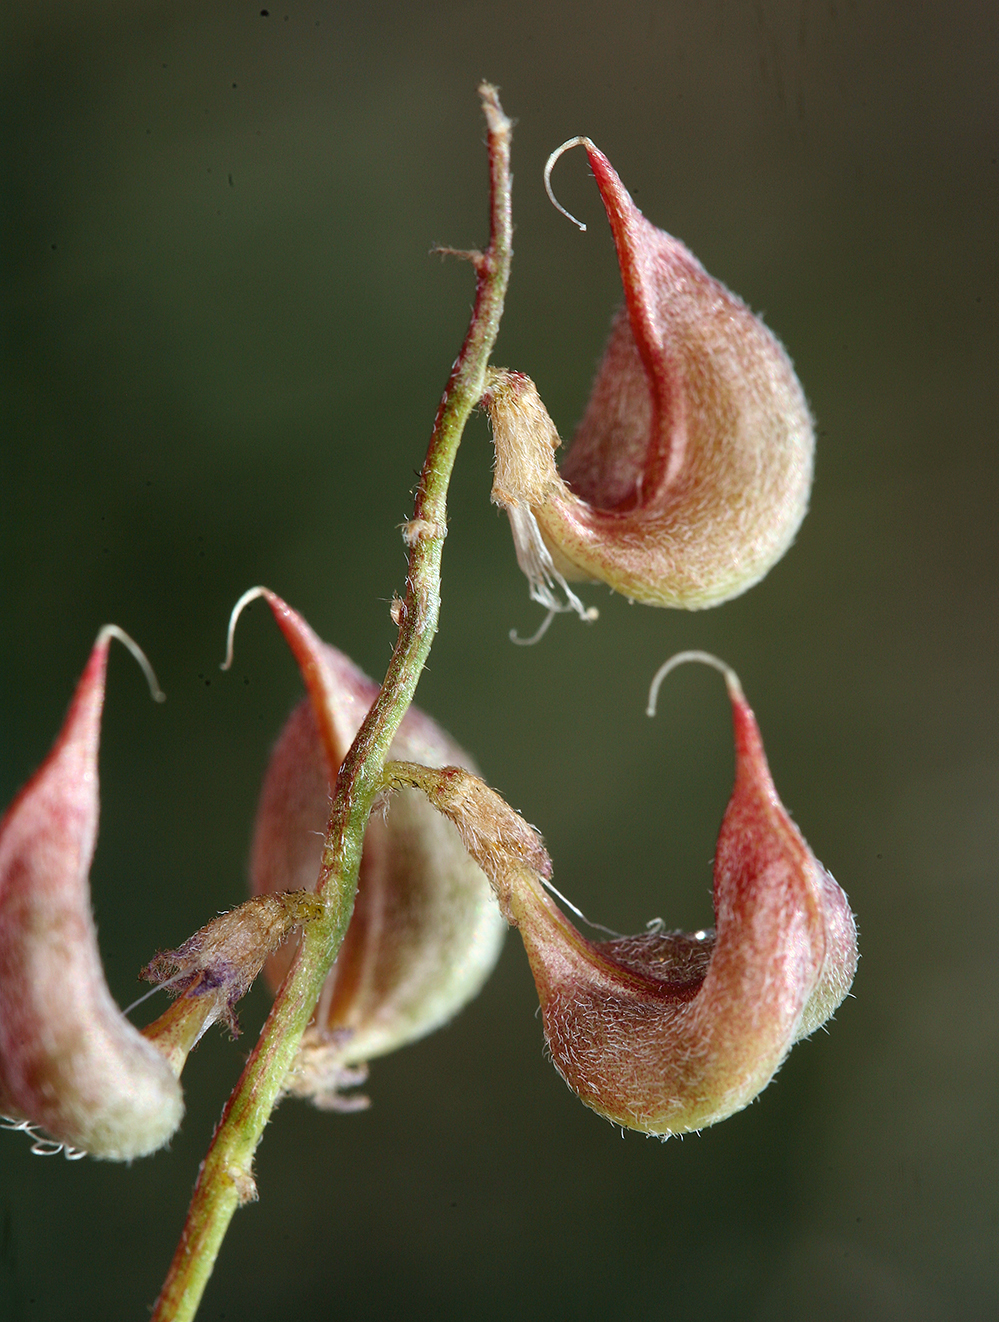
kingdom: Plantae
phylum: Tracheophyta
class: Magnoliopsida
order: Fabales
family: Fabaceae
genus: Astragalus
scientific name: Astragalus inyoensis
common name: Inyo locoweed
